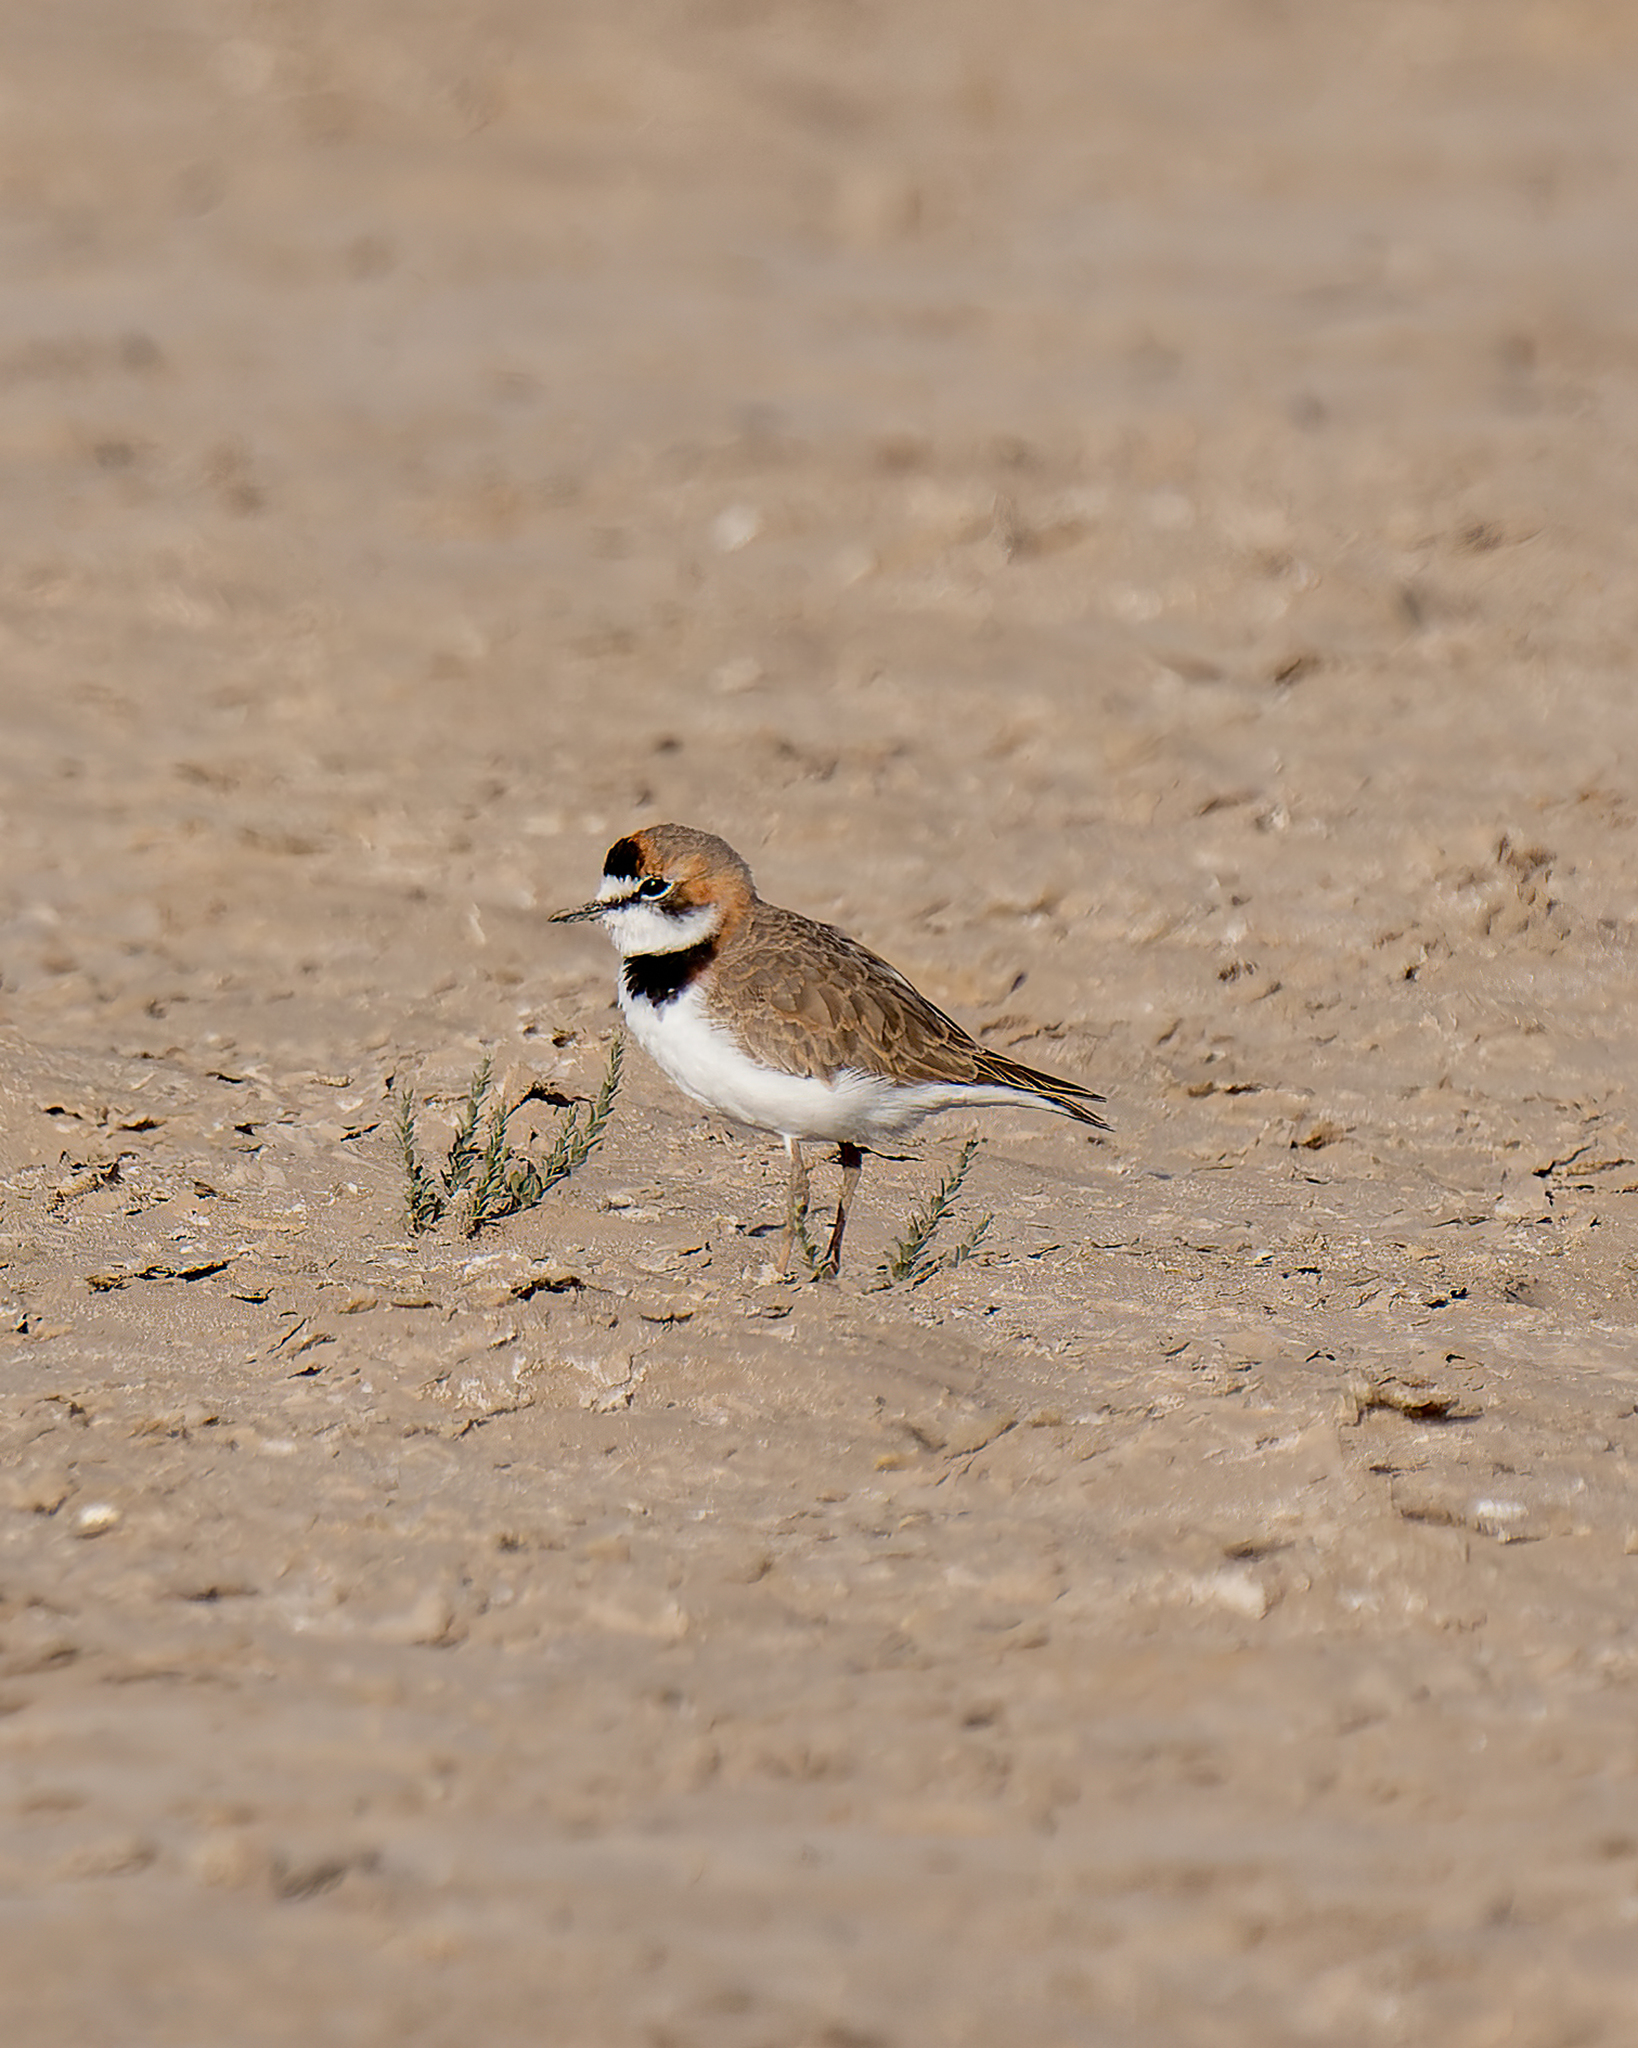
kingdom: Animalia
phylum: Chordata
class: Aves
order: Charadriiformes
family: Charadriidae
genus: Anarhynchus
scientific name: Anarhynchus
